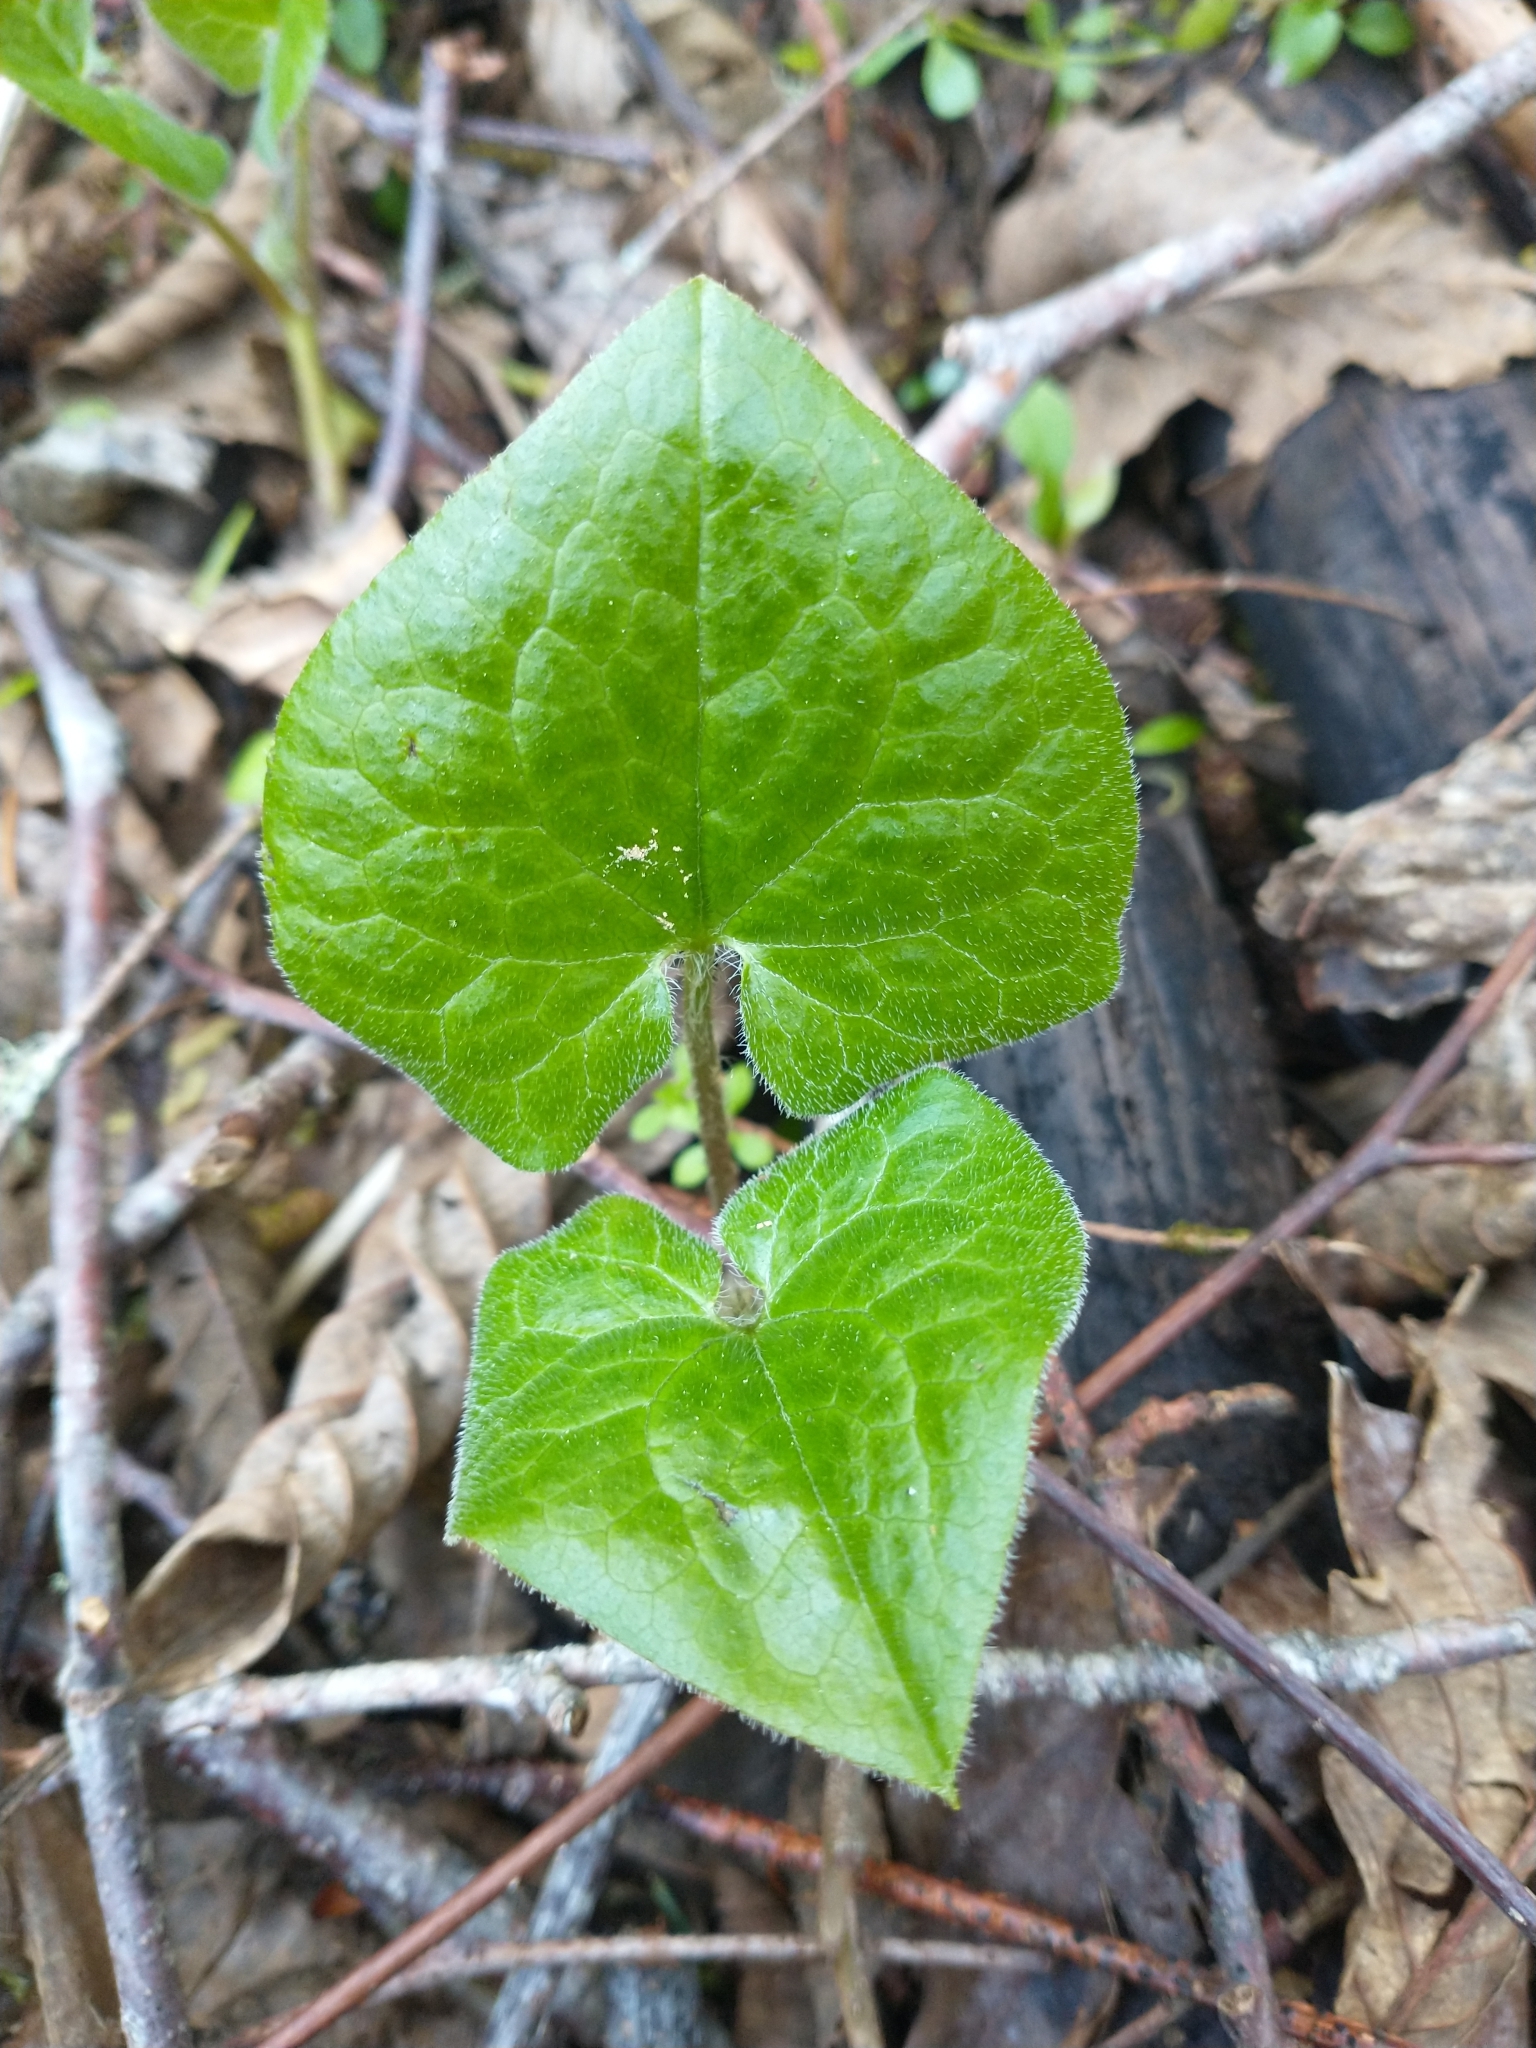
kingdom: Plantae
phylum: Tracheophyta
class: Magnoliopsida
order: Piperales
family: Aristolochiaceae
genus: Asarum
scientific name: Asarum caudatum
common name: Wild ginger
